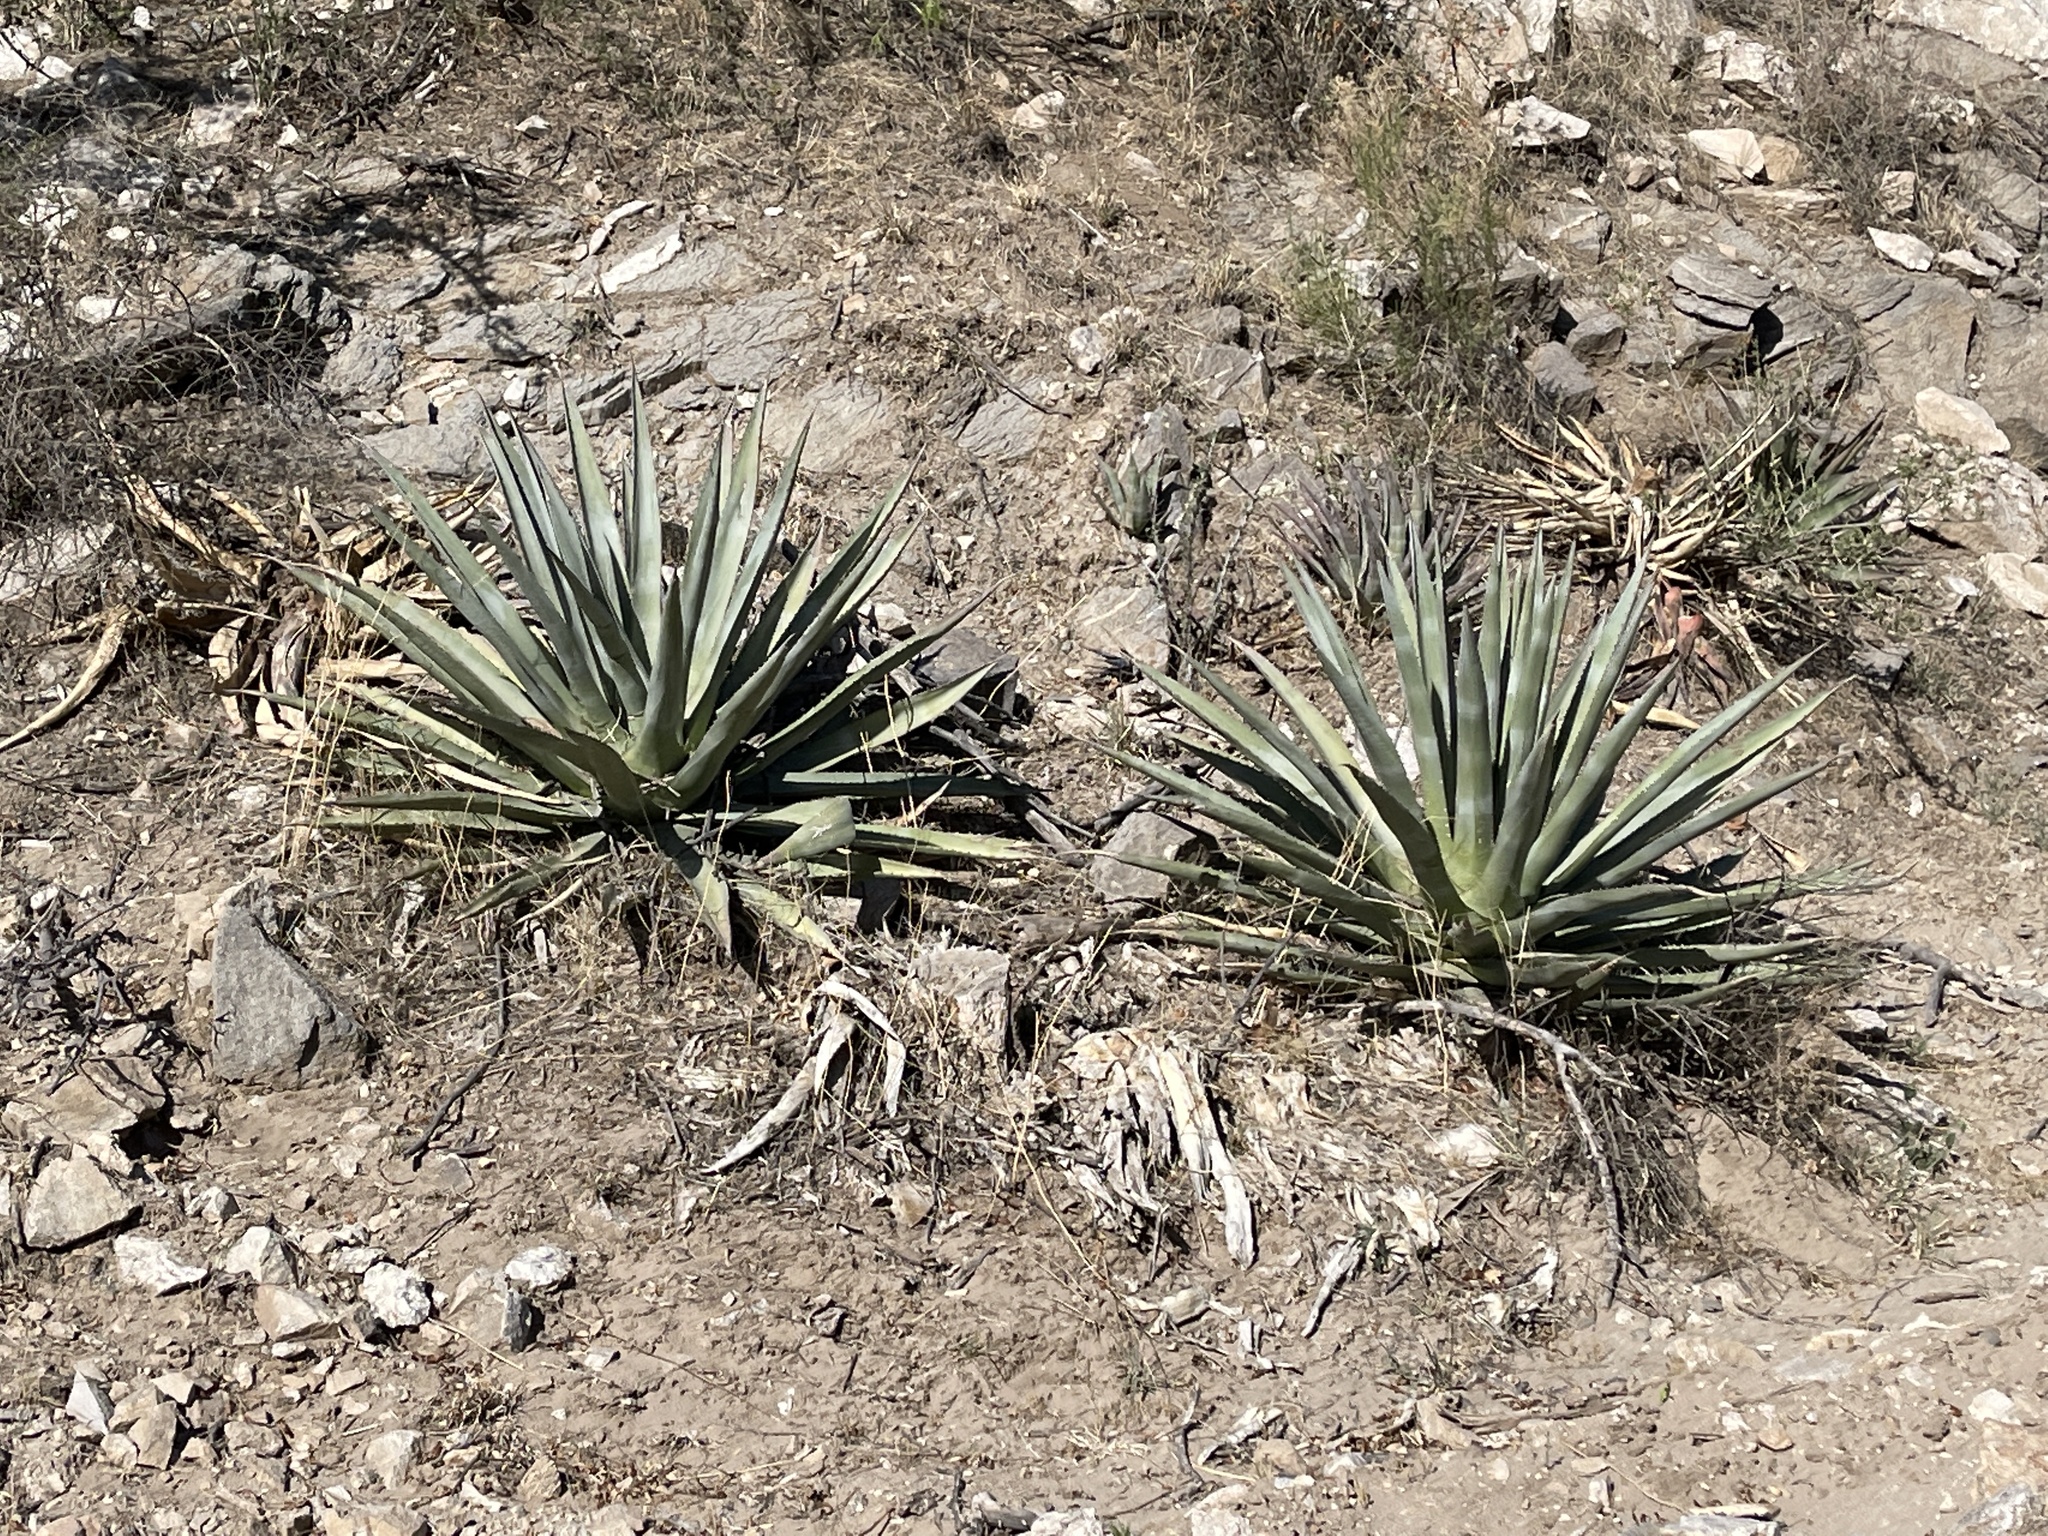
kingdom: Plantae
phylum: Tracheophyta
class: Liliopsida
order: Asparagales
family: Asparagaceae
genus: Agave
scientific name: Agave palmeri
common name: Palmer agave
